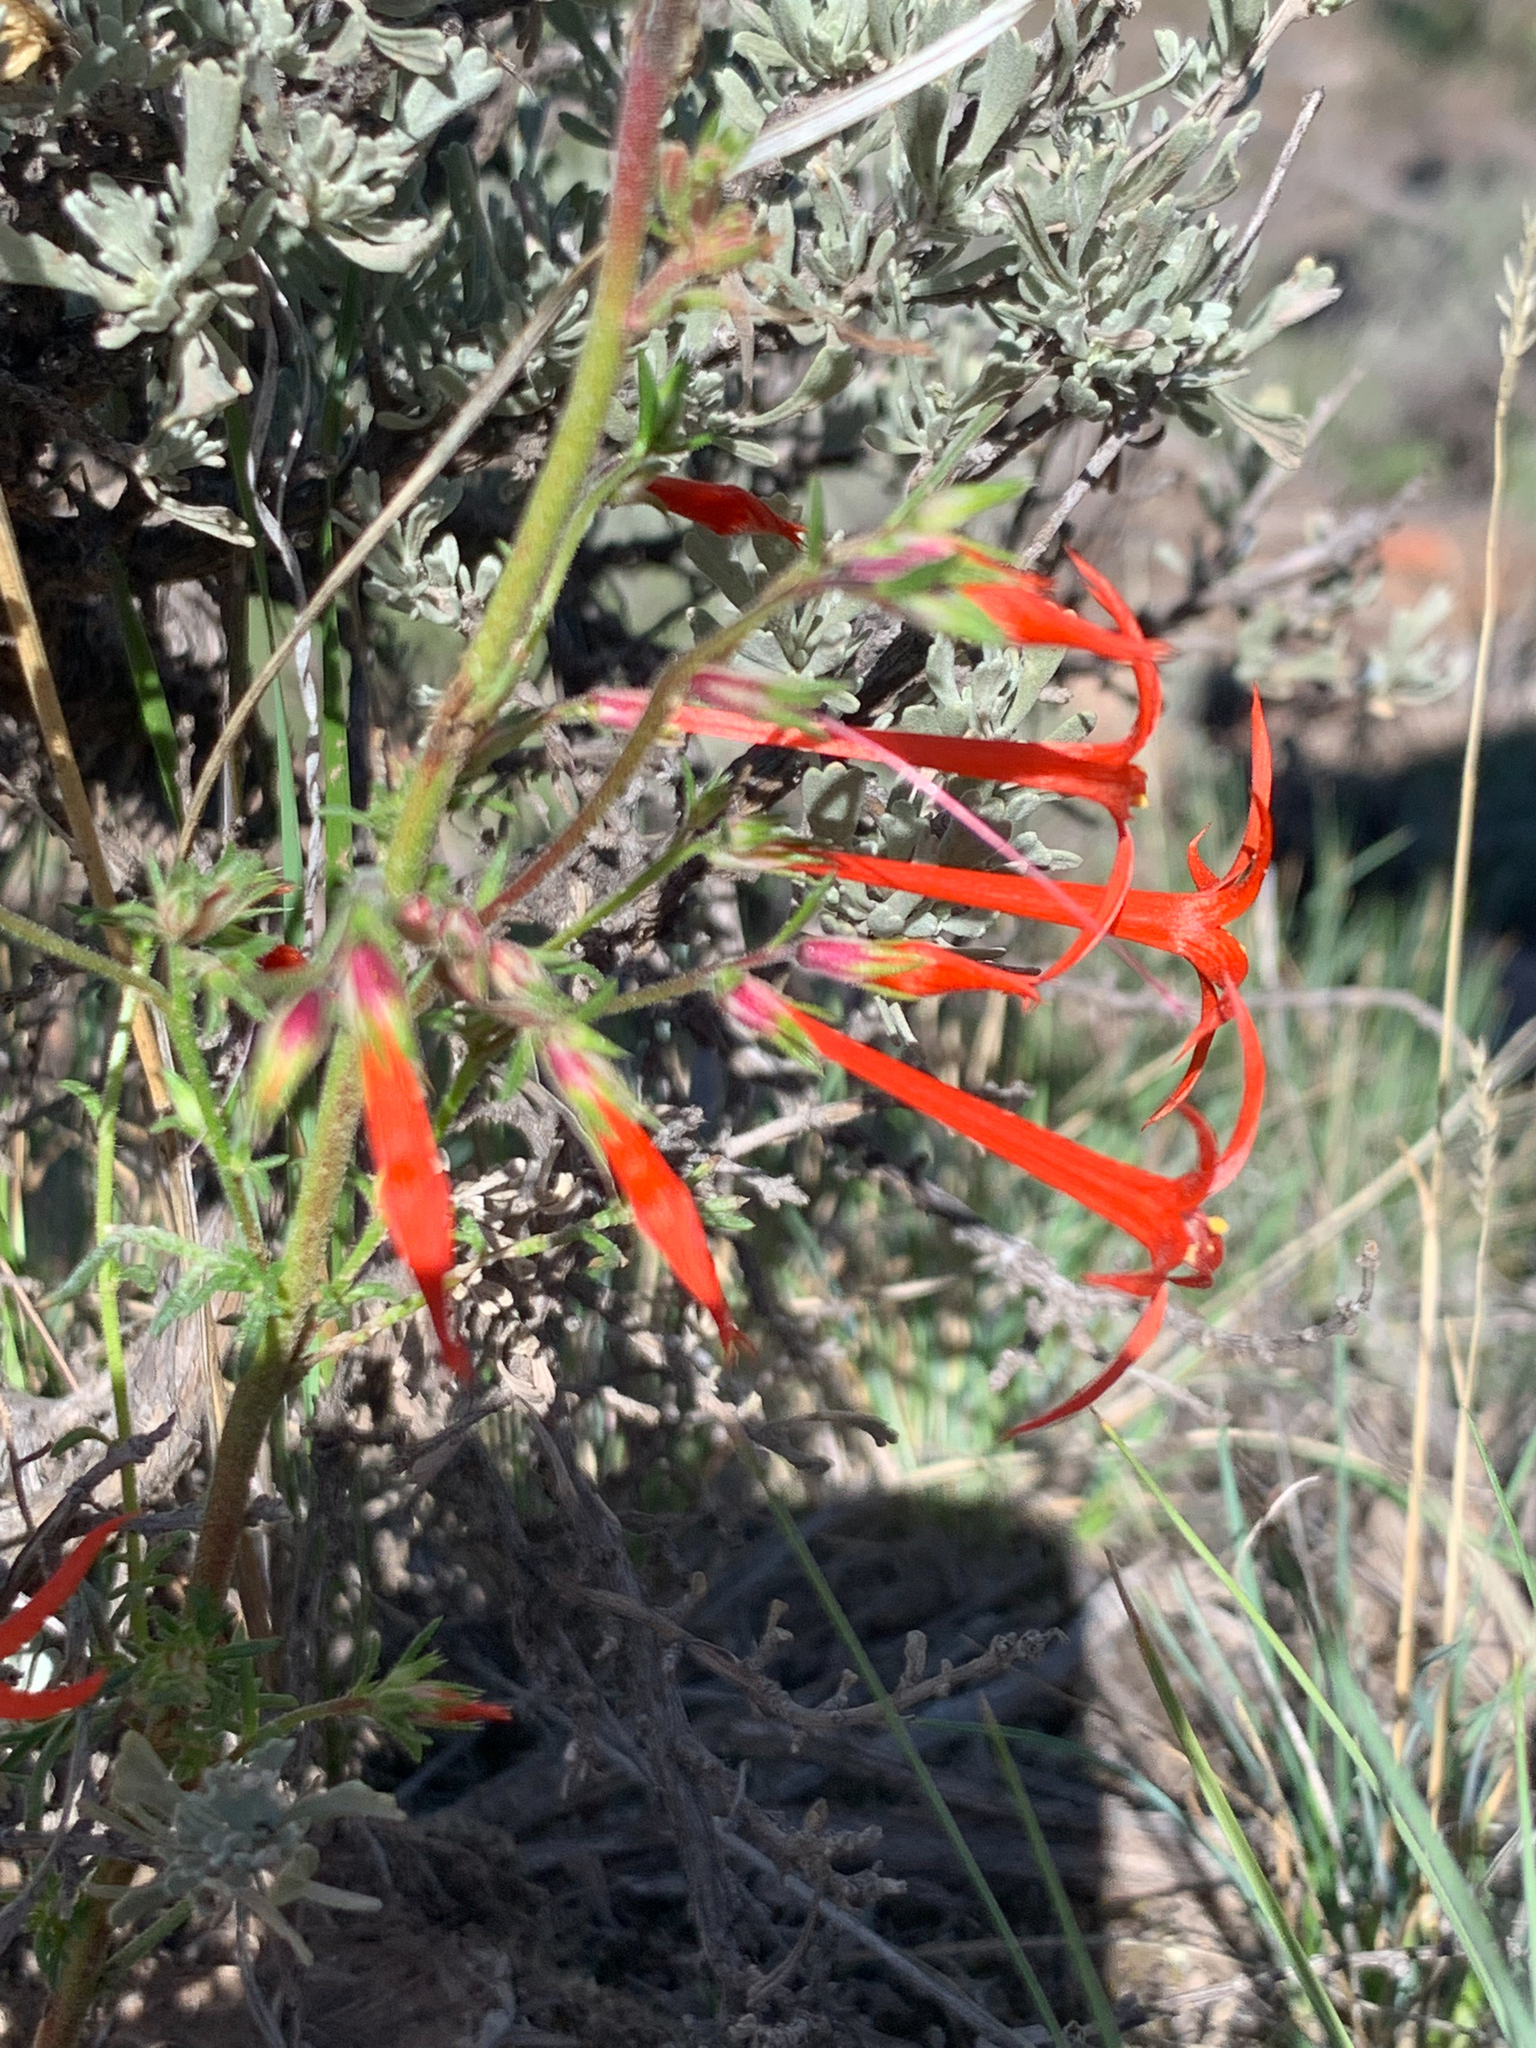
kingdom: Plantae
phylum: Tracheophyta
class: Magnoliopsida
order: Ericales
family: Polemoniaceae
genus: Ipomopsis
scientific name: Ipomopsis aggregata
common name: Scarlet gilia
